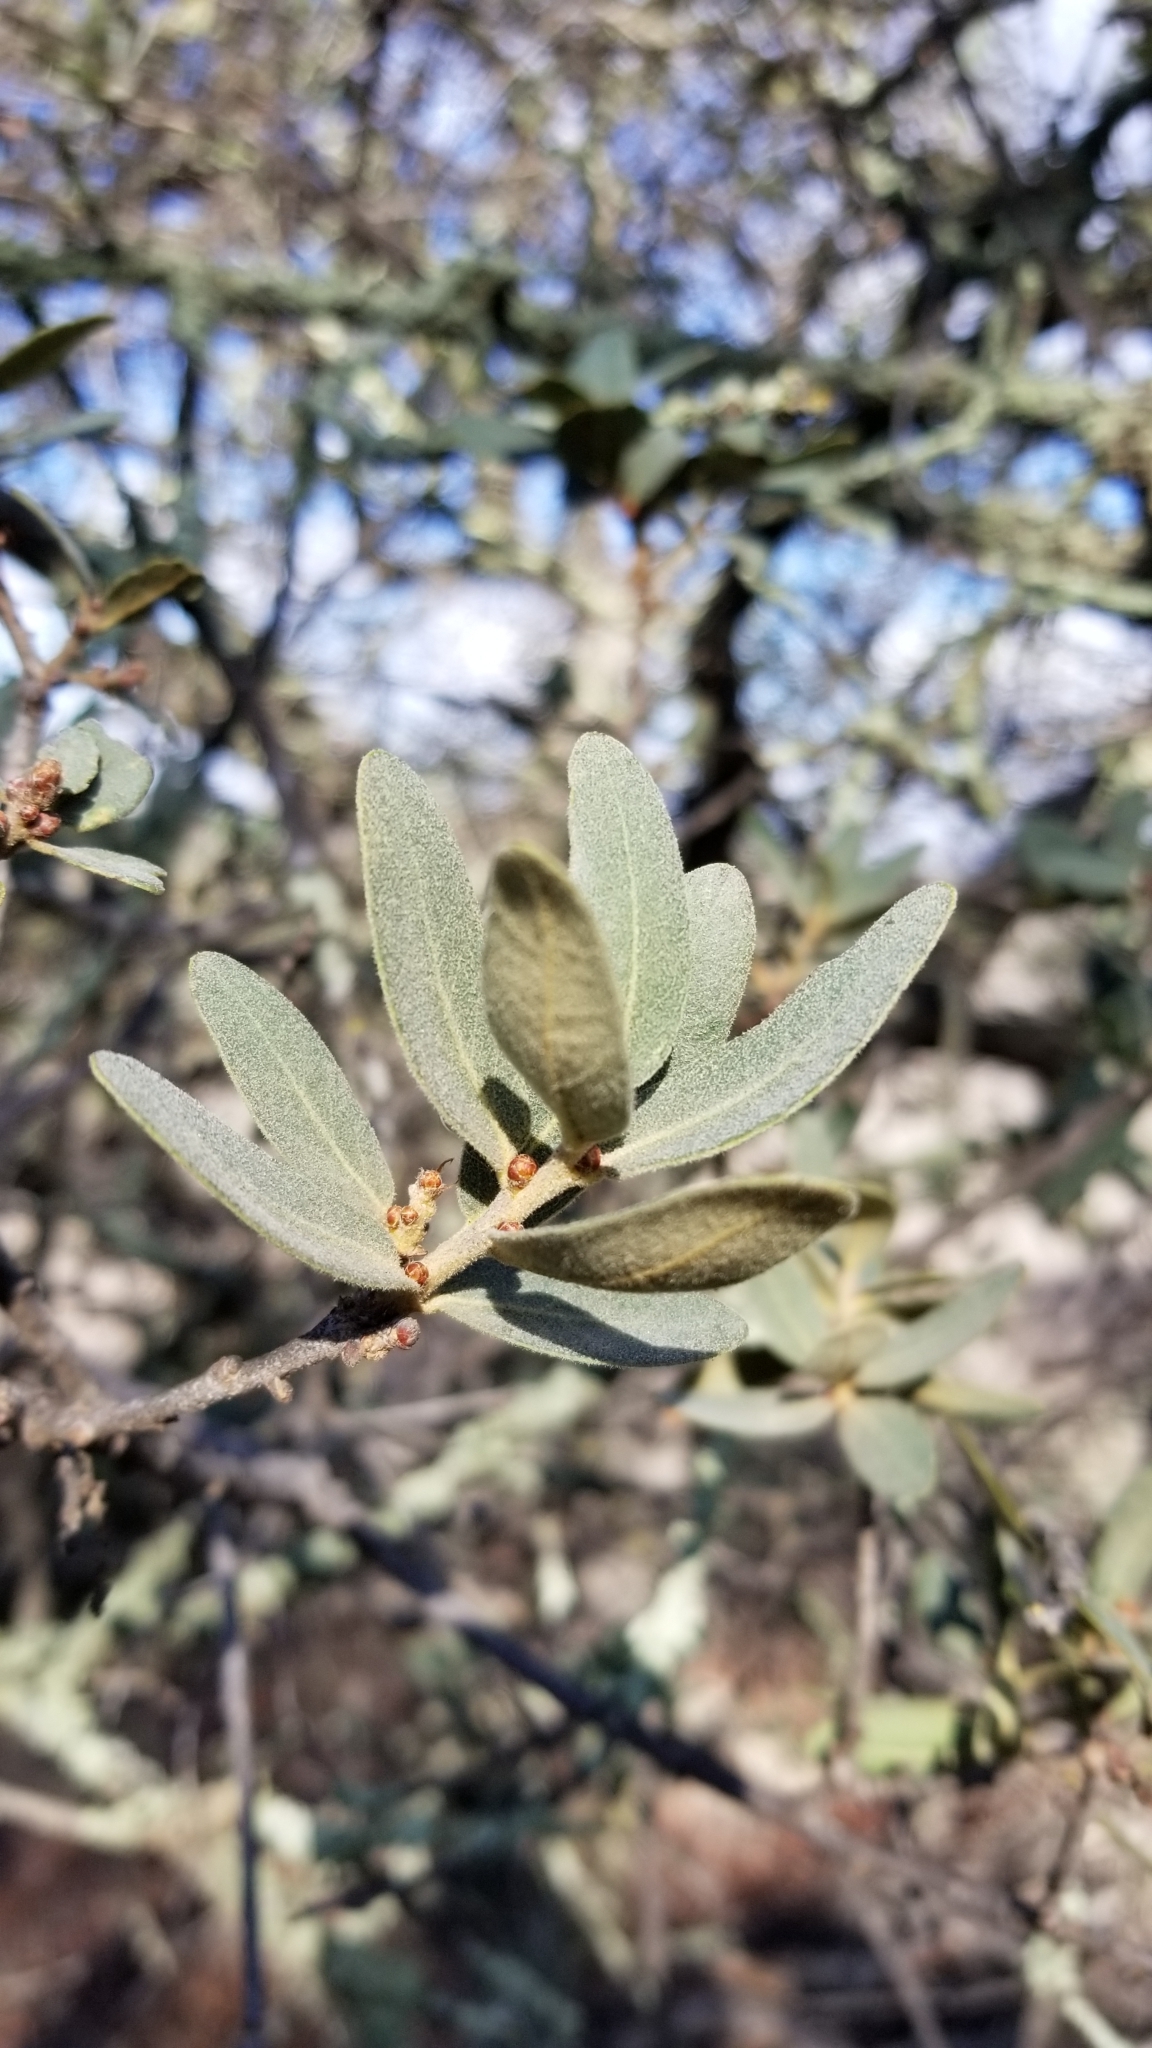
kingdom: Plantae
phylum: Tracheophyta
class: Magnoliopsida
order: Fagales
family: Fagaceae
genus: Quercus
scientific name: Quercus engelmannii
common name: Engelmann oak
